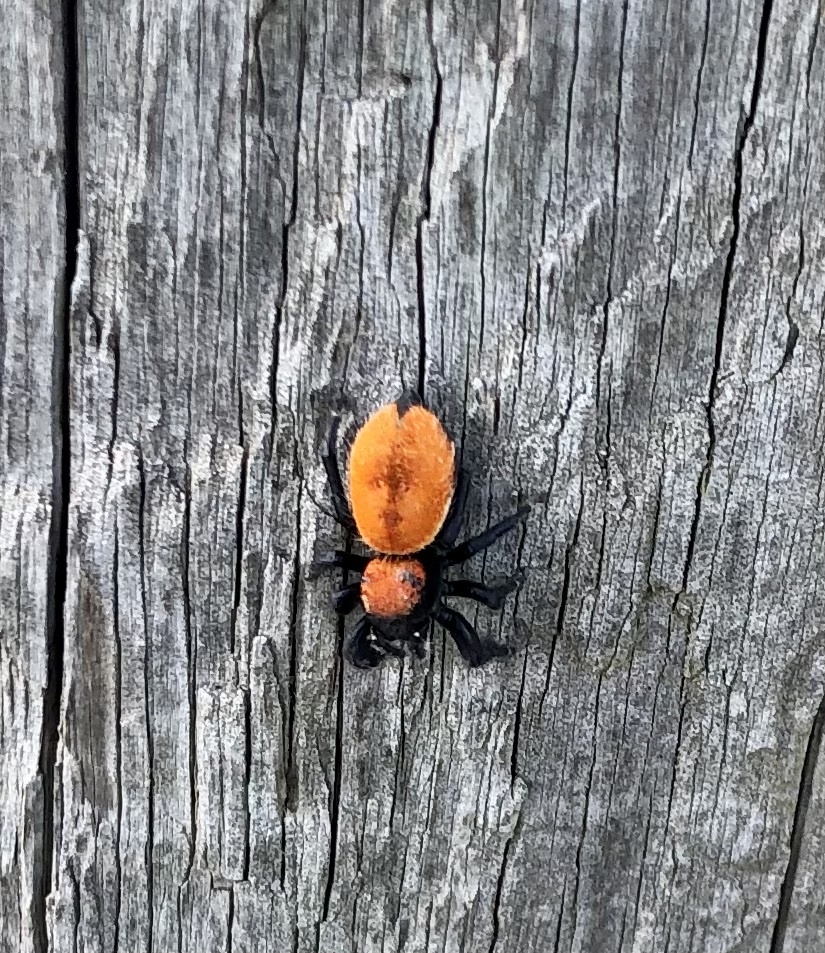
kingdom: Animalia
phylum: Arthropoda
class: Arachnida
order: Araneae
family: Salticidae
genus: Phidippus
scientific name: Phidippus apacheanus
